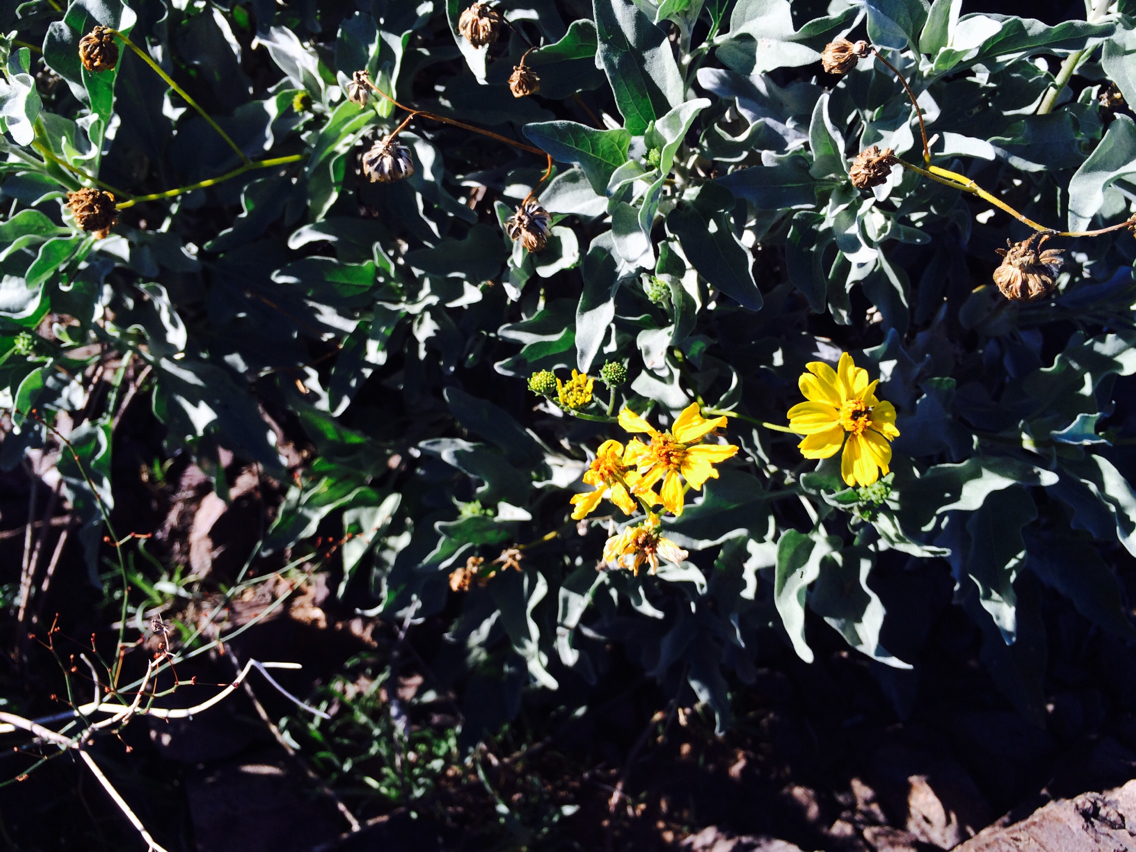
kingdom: Plantae
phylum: Tracheophyta
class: Magnoliopsida
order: Asterales
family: Asteraceae
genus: Encelia
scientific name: Encelia farinosa
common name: Brittlebush
